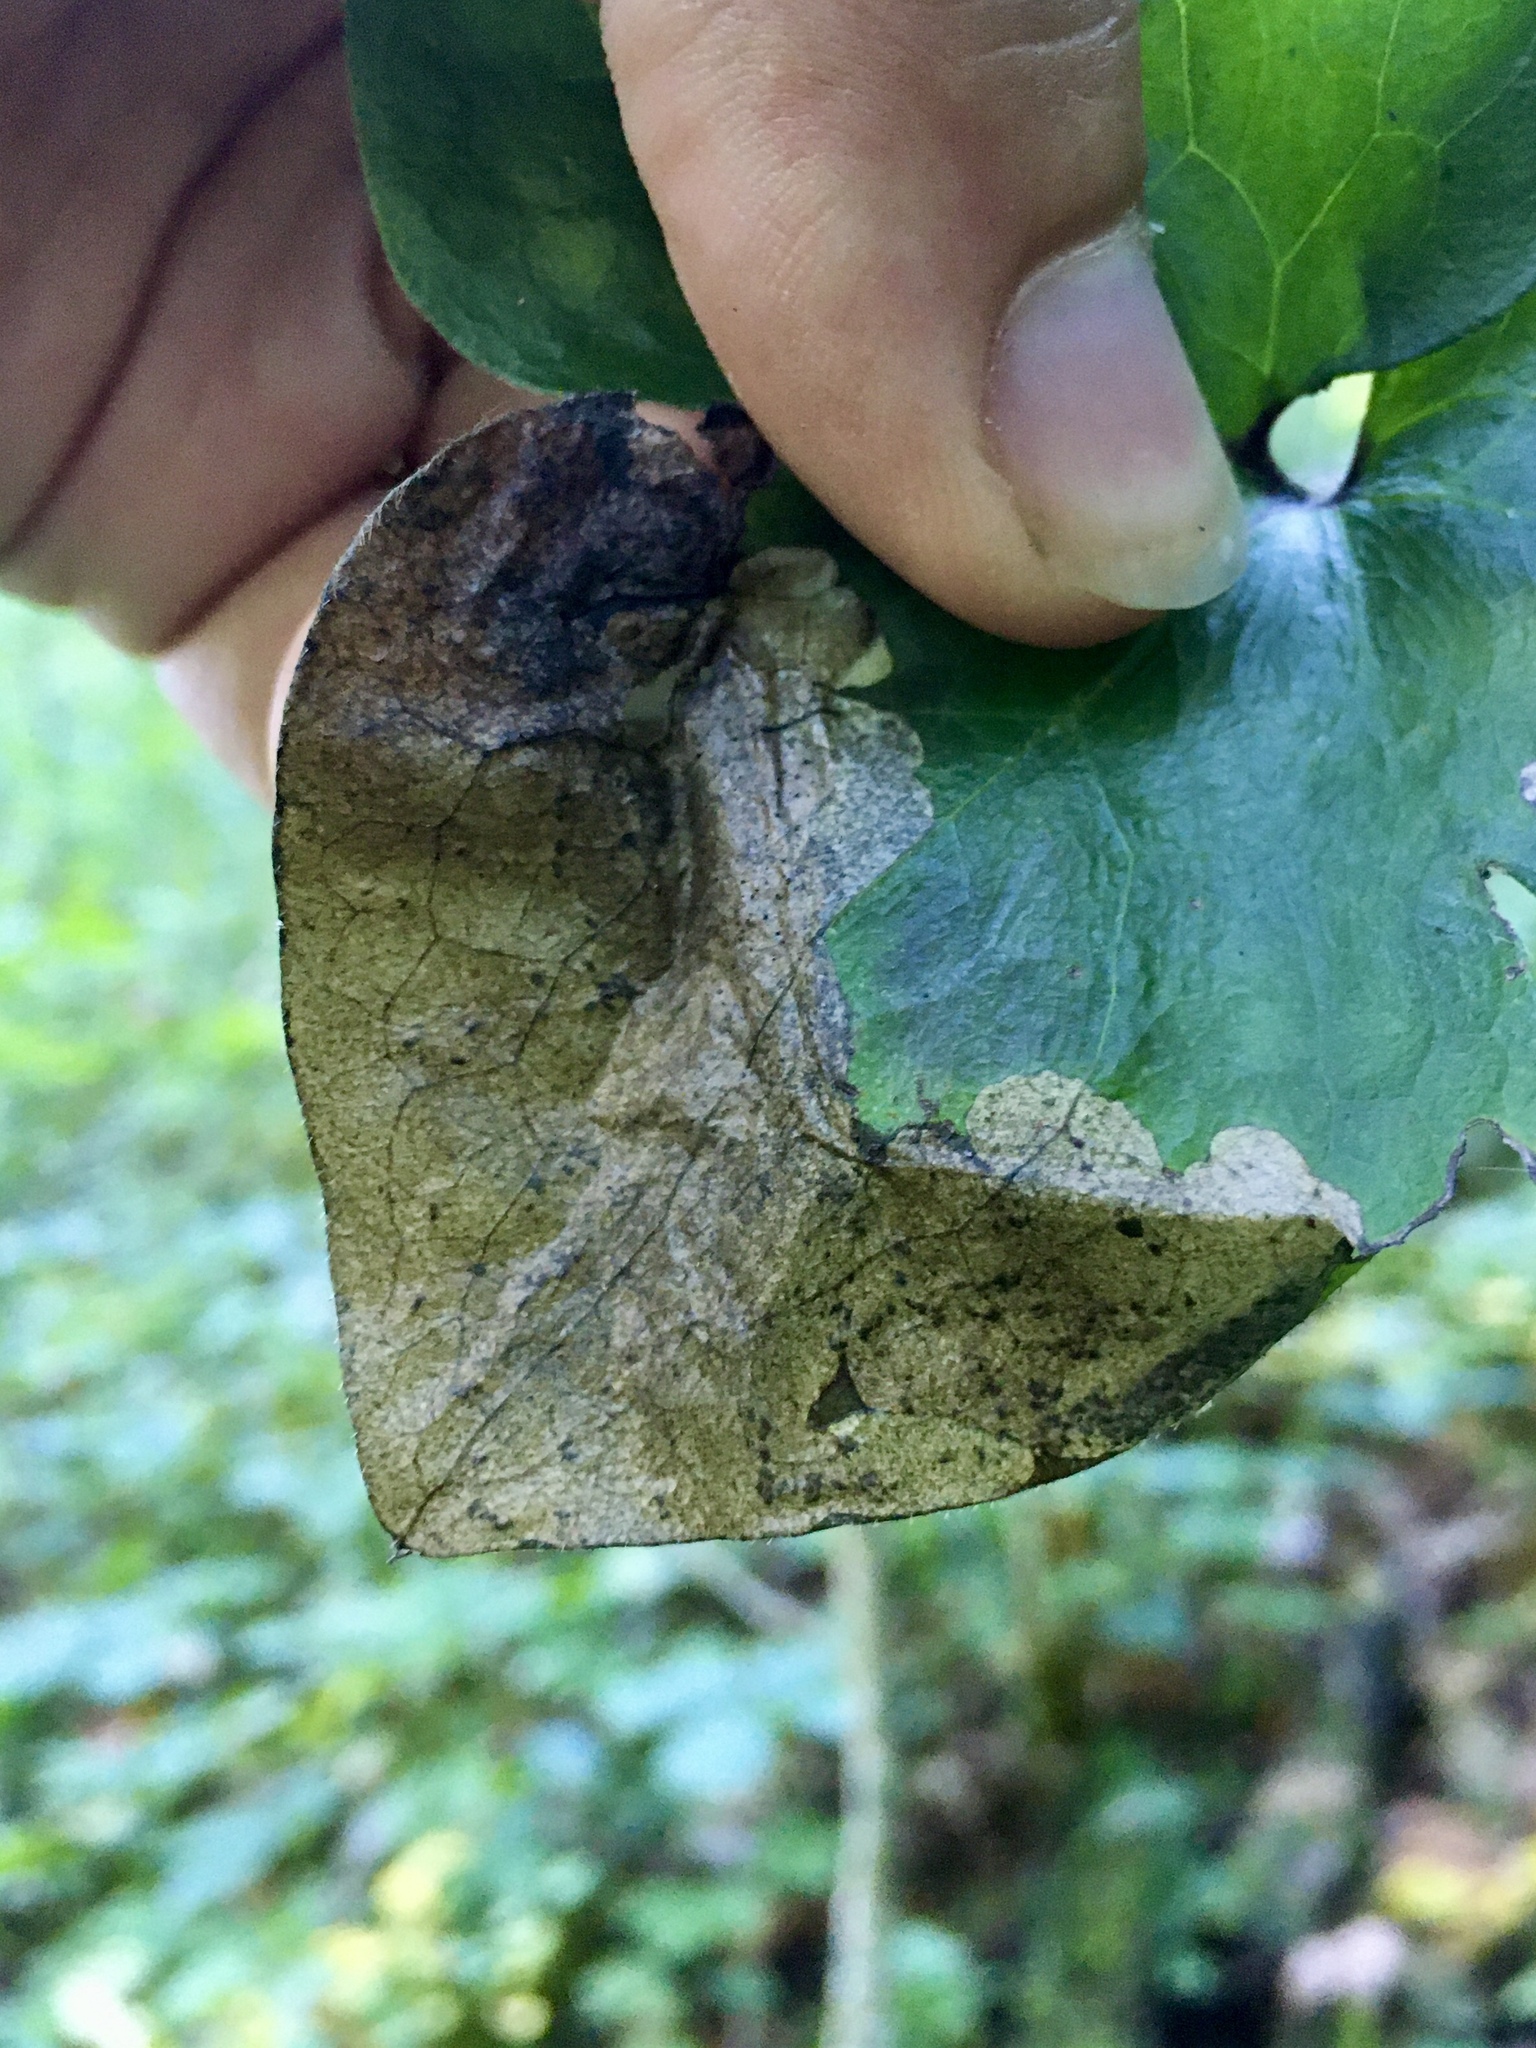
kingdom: Animalia
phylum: Arthropoda
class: Insecta
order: Hymenoptera
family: Tenthredinidae
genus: Pseudodineura
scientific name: Pseudodineura parva
